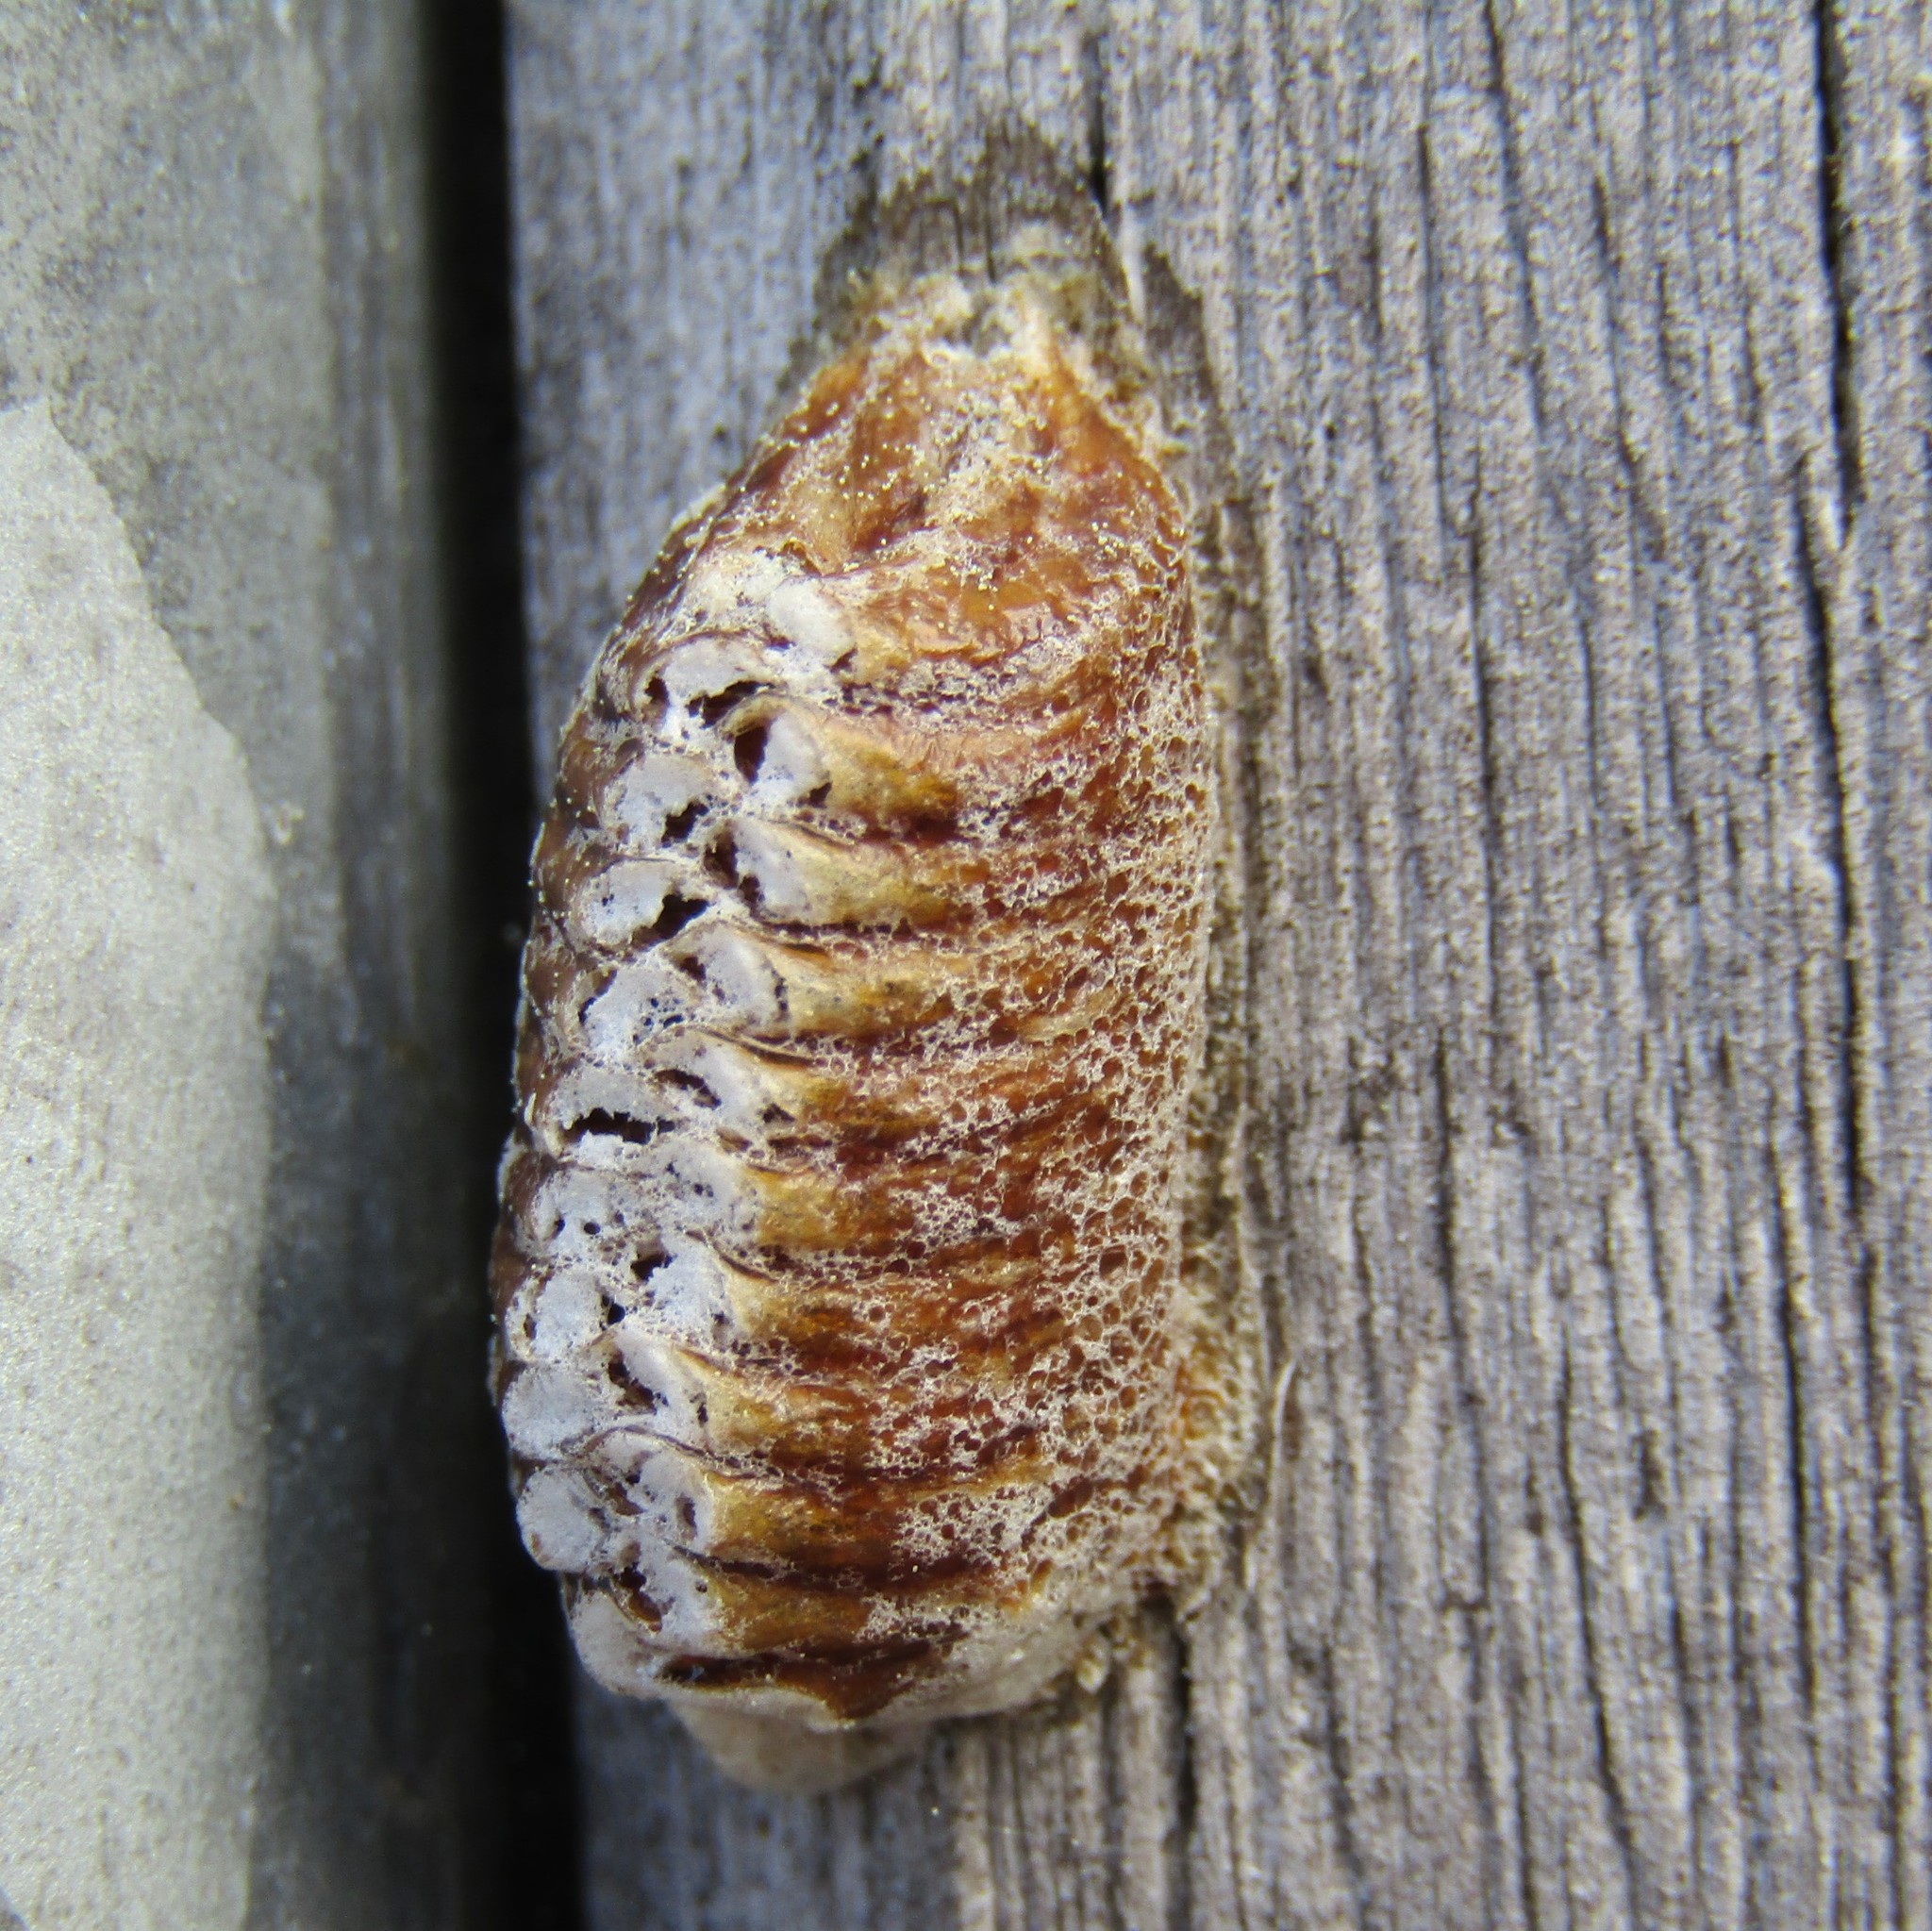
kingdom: Animalia
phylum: Arthropoda
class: Insecta
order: Mantodea
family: Mantidae
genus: Orthodera
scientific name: Orthodera novaezealandiae
